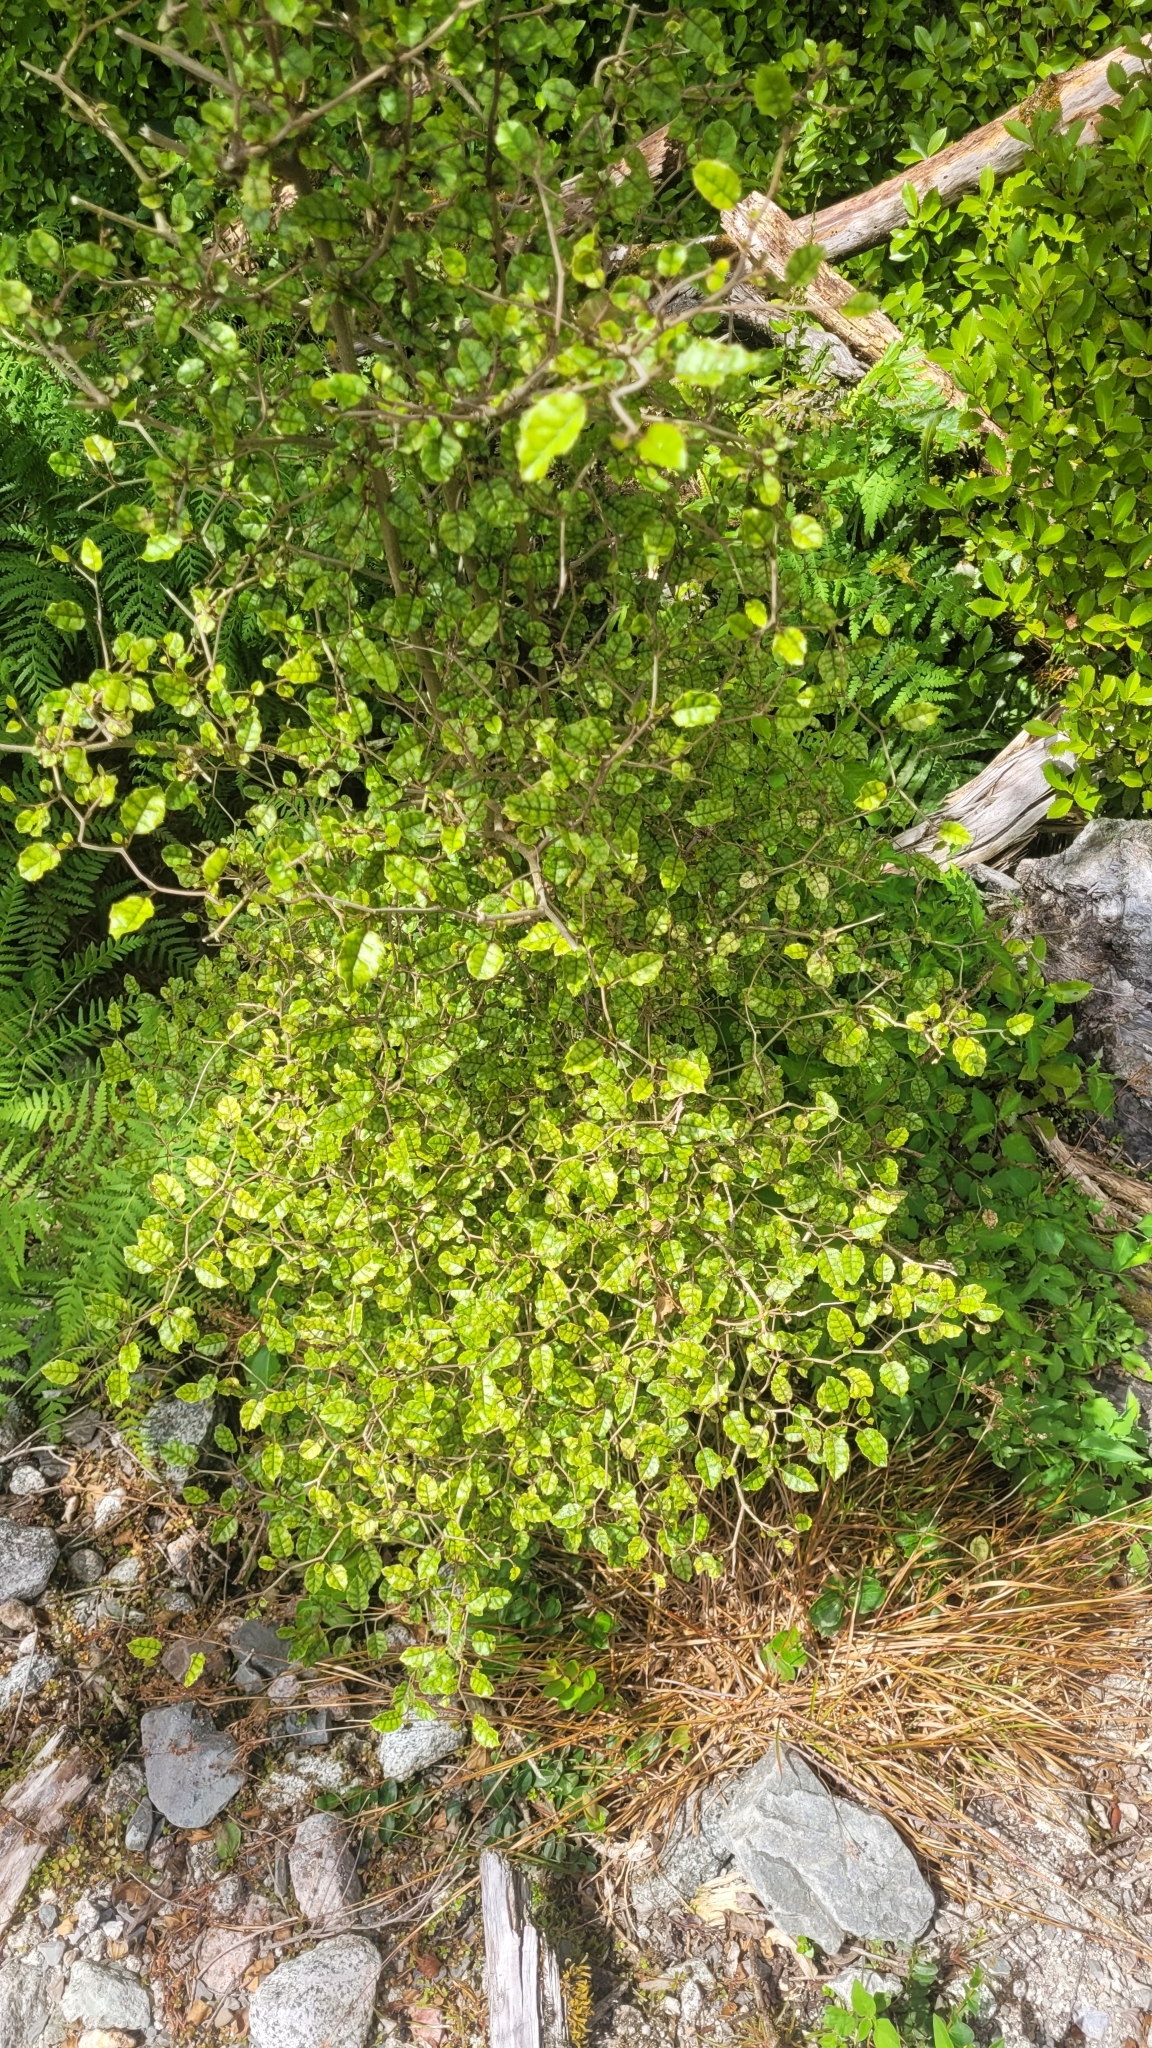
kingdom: Plantae
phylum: Tracheophyta
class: Magnoliopsida
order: Asterales
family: Rousseaceae
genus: Carpodetus
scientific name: Carpodetus serratus
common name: White mapau
